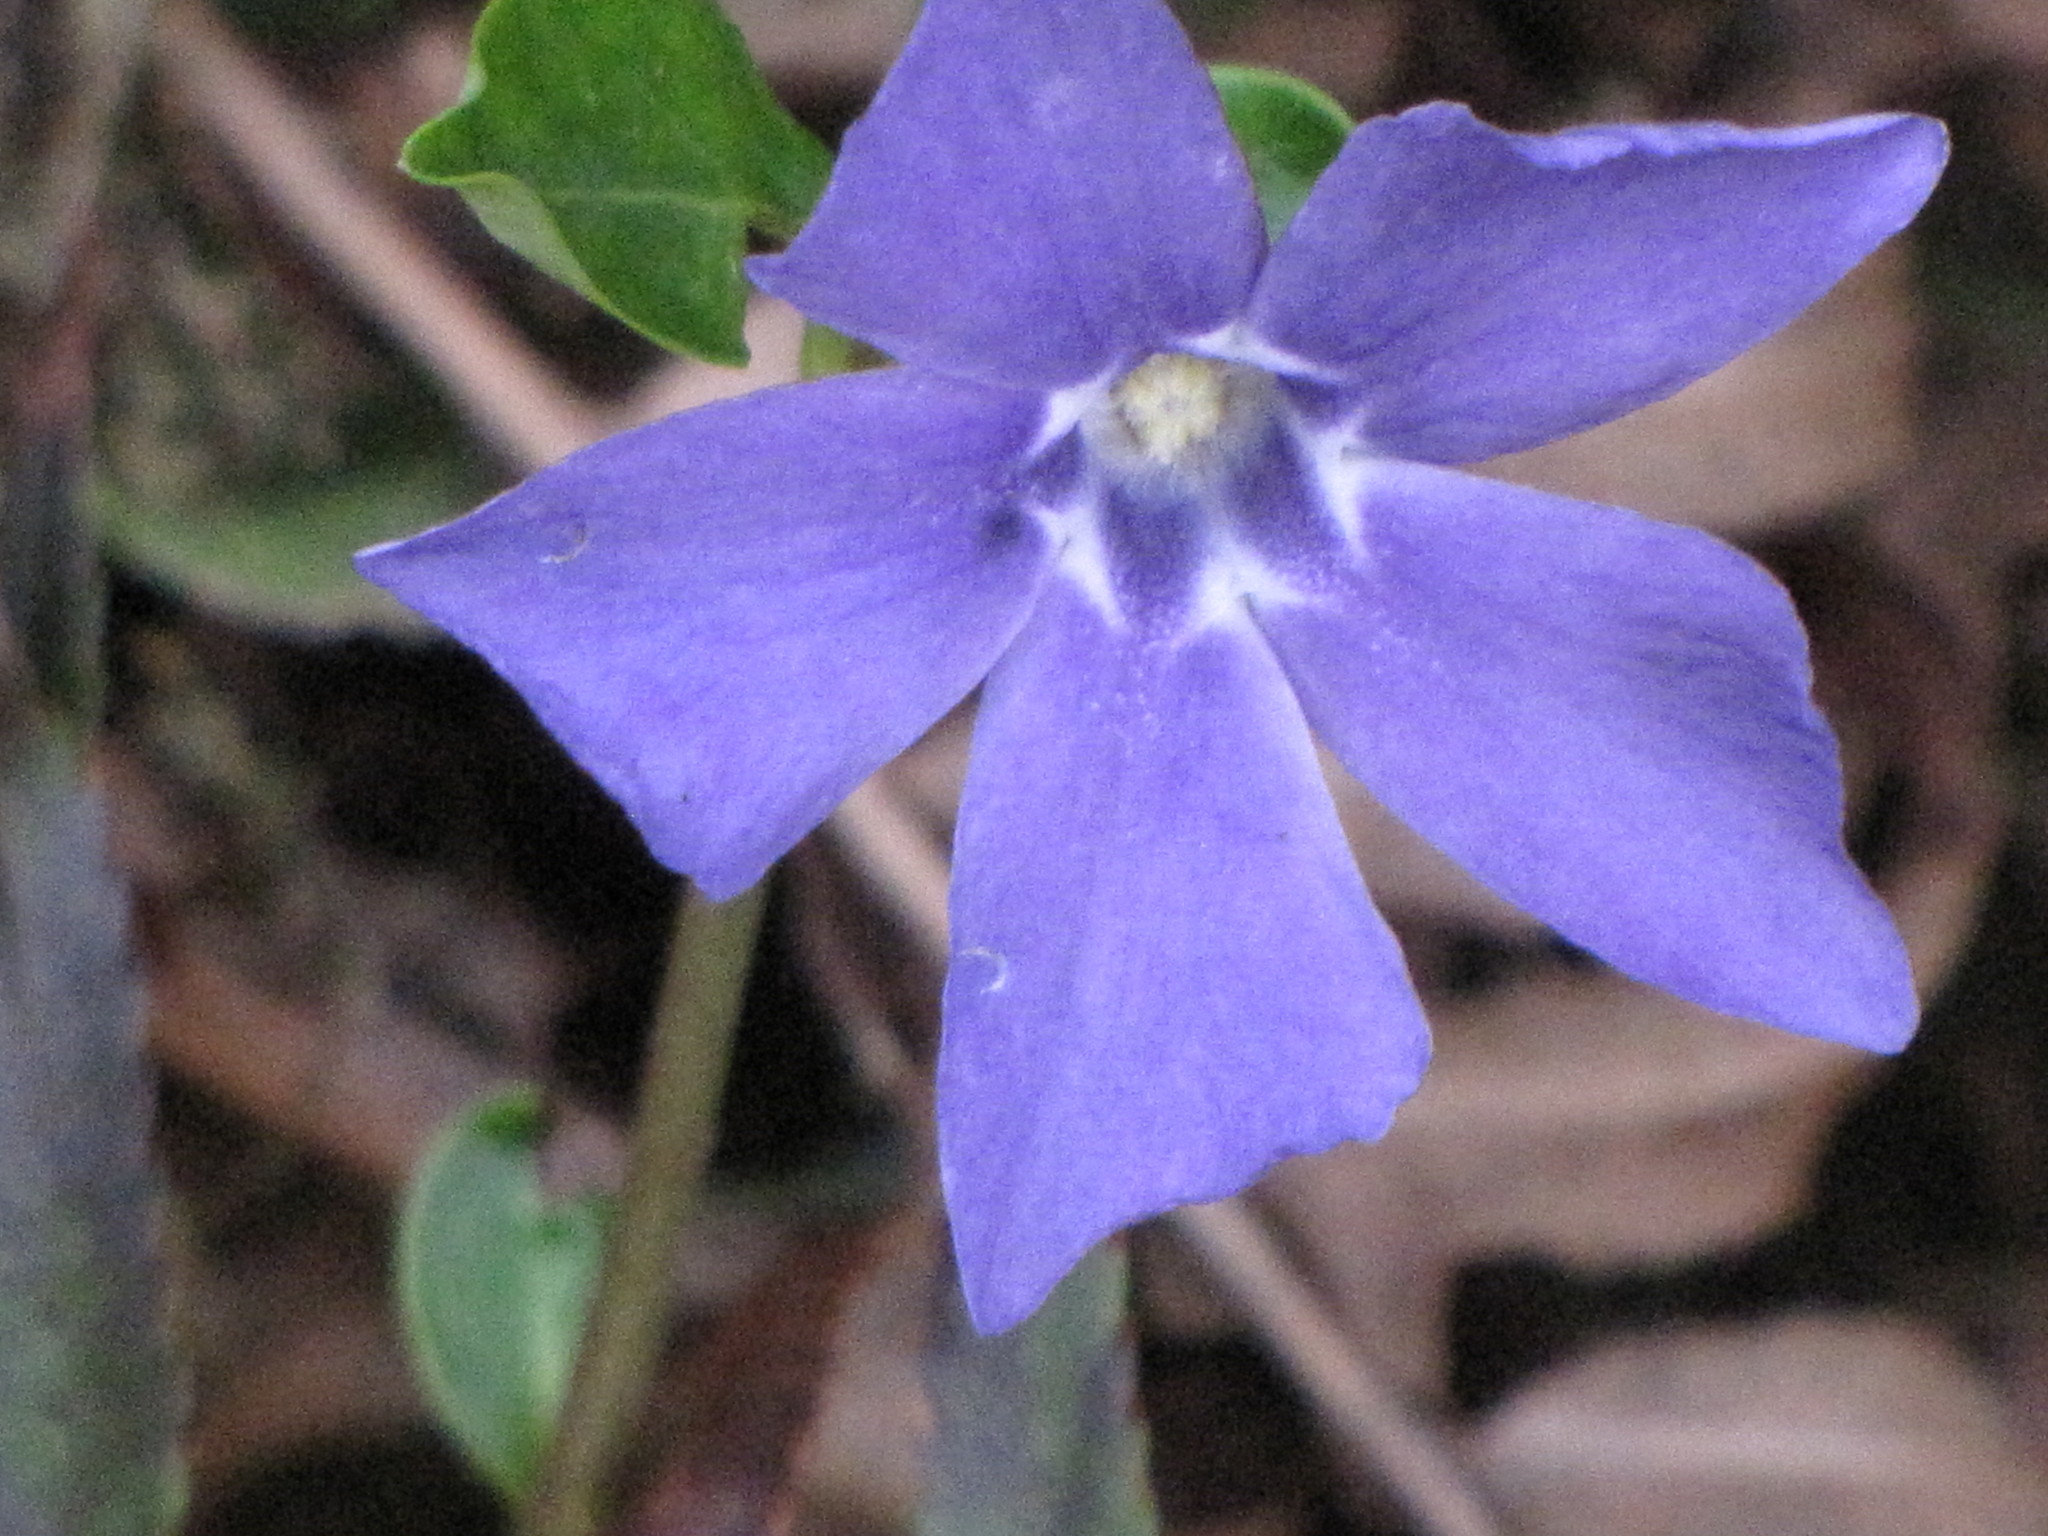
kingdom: Plantae
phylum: Tracheophyta
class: Magnoliopsida
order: Gentianales
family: Apocynaceae
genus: Vinca
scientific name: Vinca minor
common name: Lesser periwinkle
